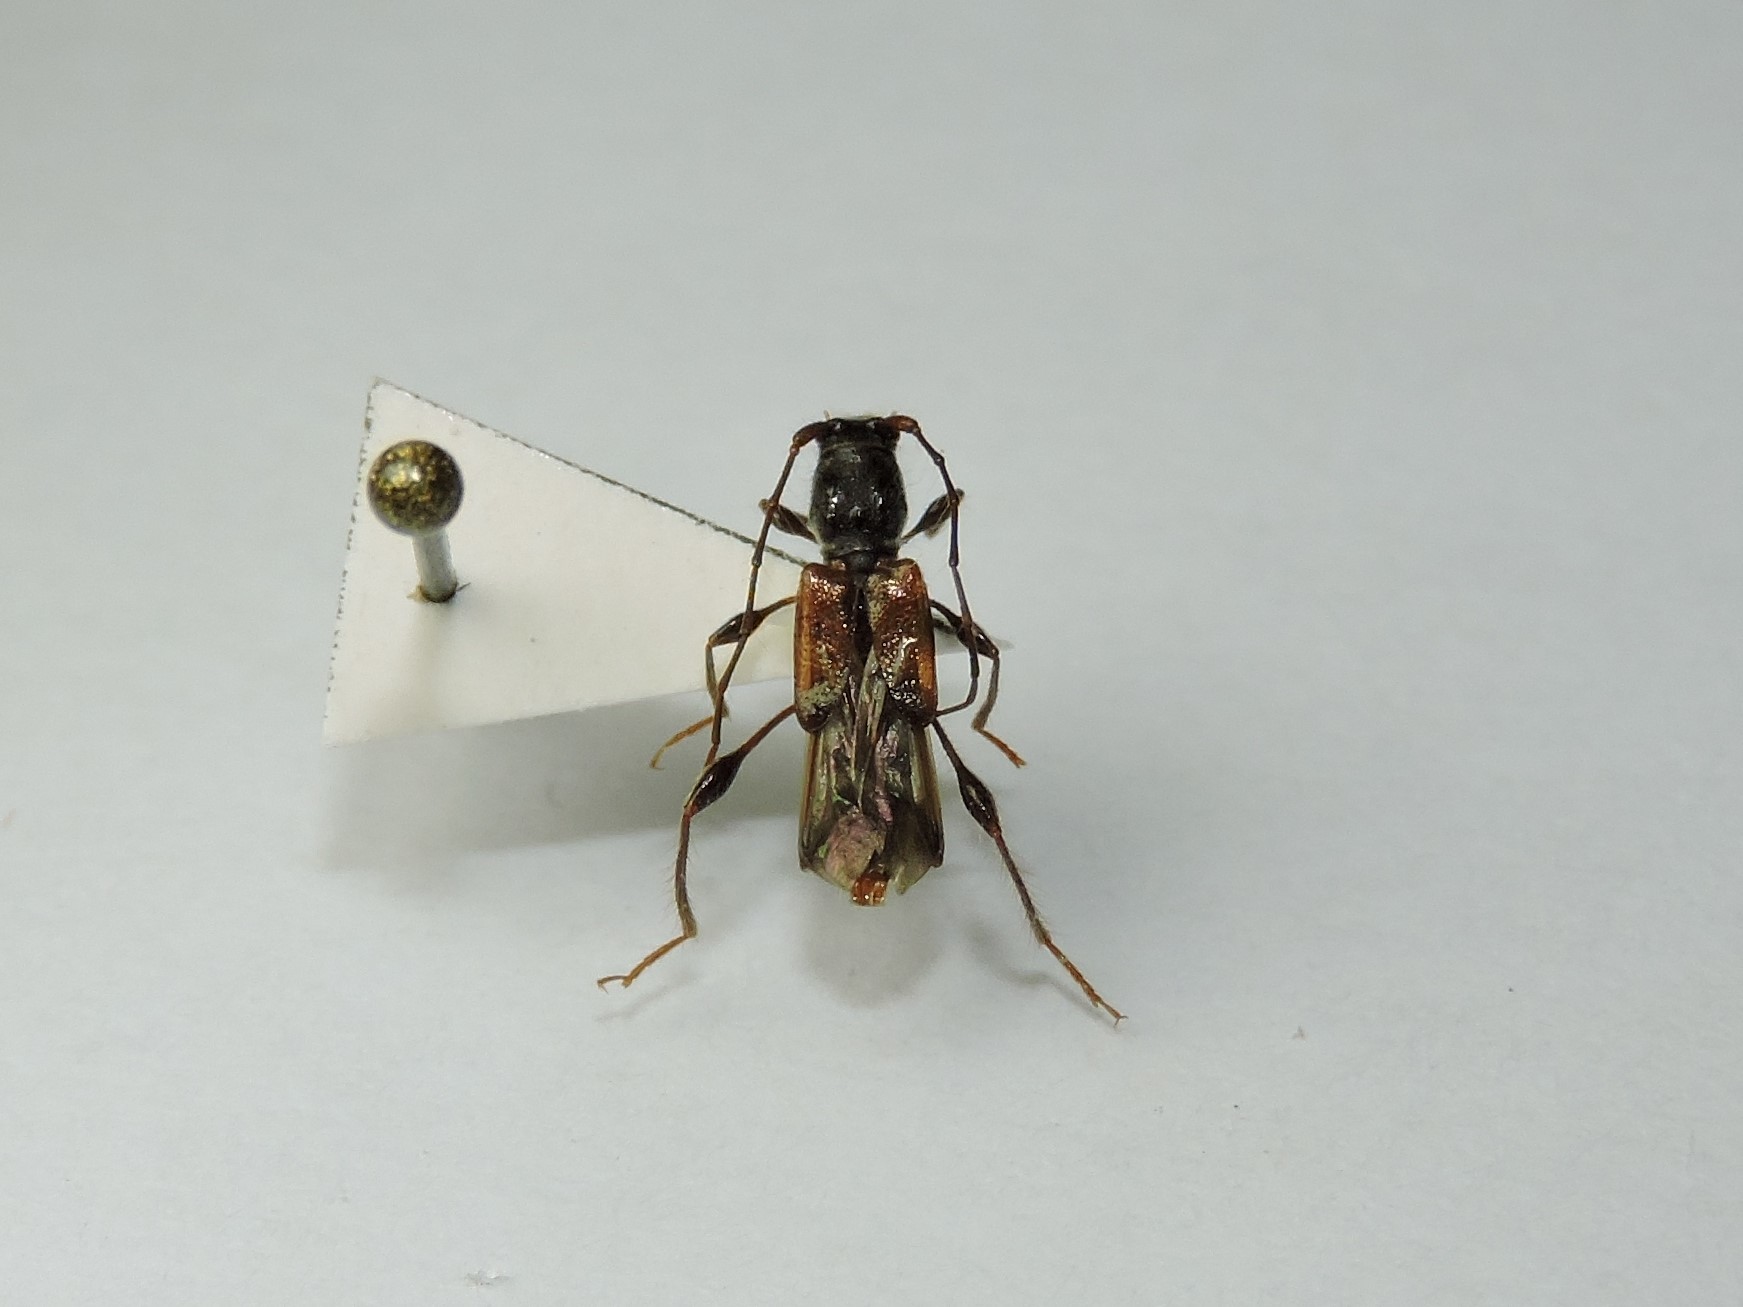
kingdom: Animalia
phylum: Arthropoda
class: Insecta
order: Coleoptera
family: Cerambycidae
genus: Molorchus
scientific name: Molorchus minor
